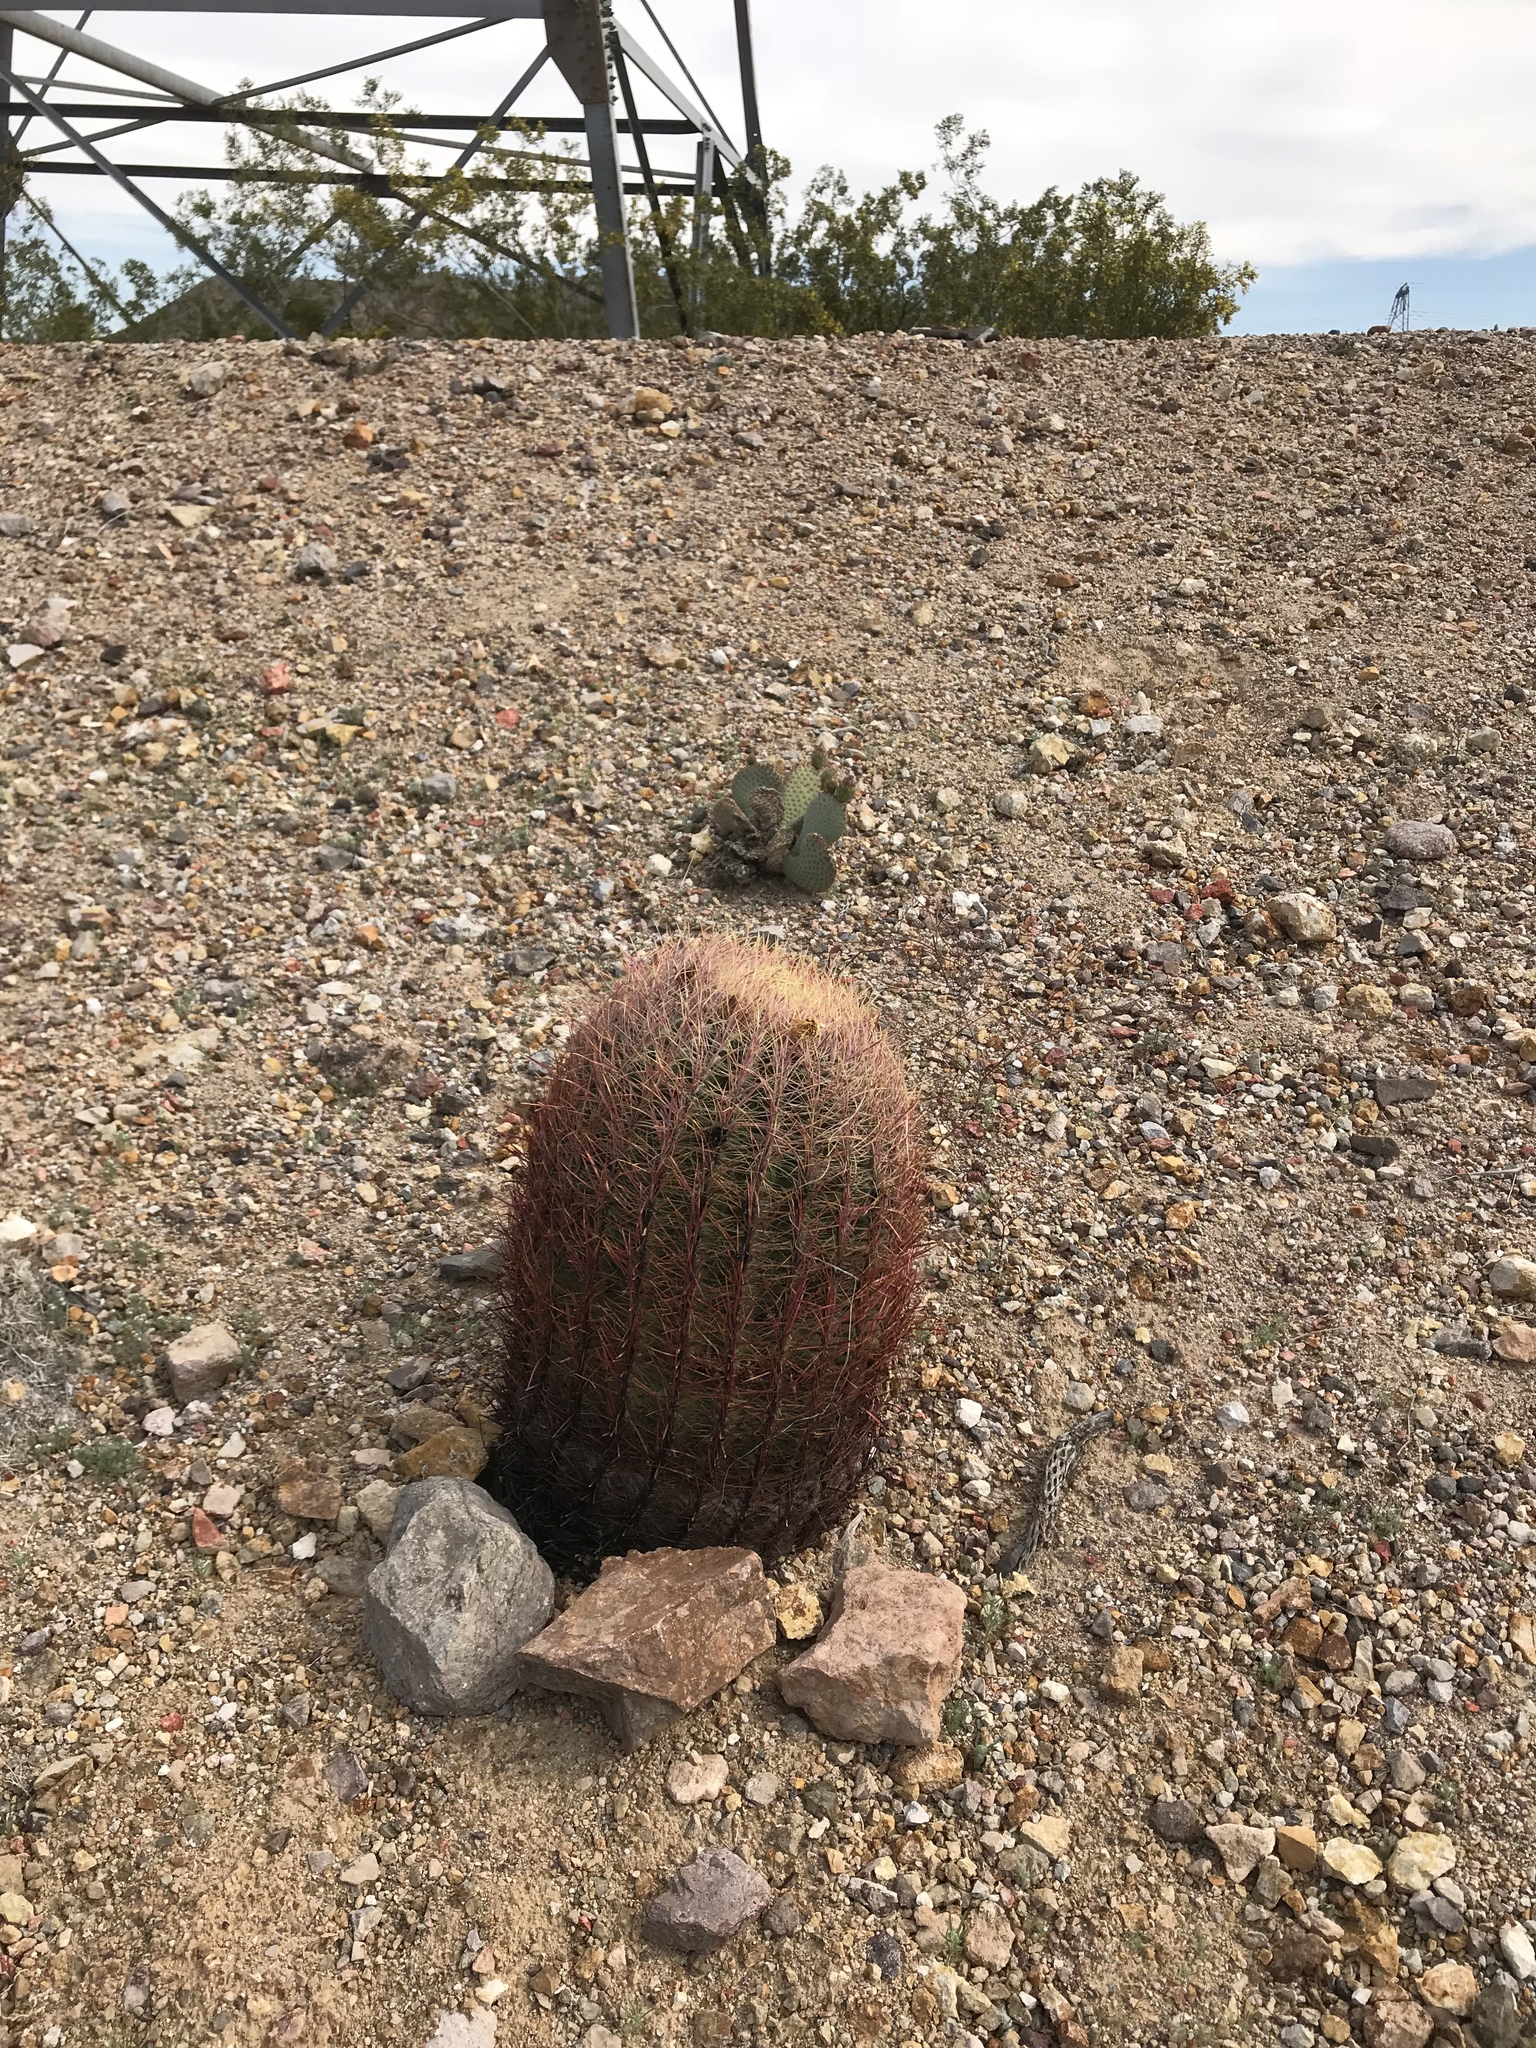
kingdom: Plantae
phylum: Tracheophyta
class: Magnoliopsida
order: Caryophyllales
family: Cactaceae
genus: Ferocactus
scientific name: Ferocactus cylindraceus
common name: California barrel cactus
